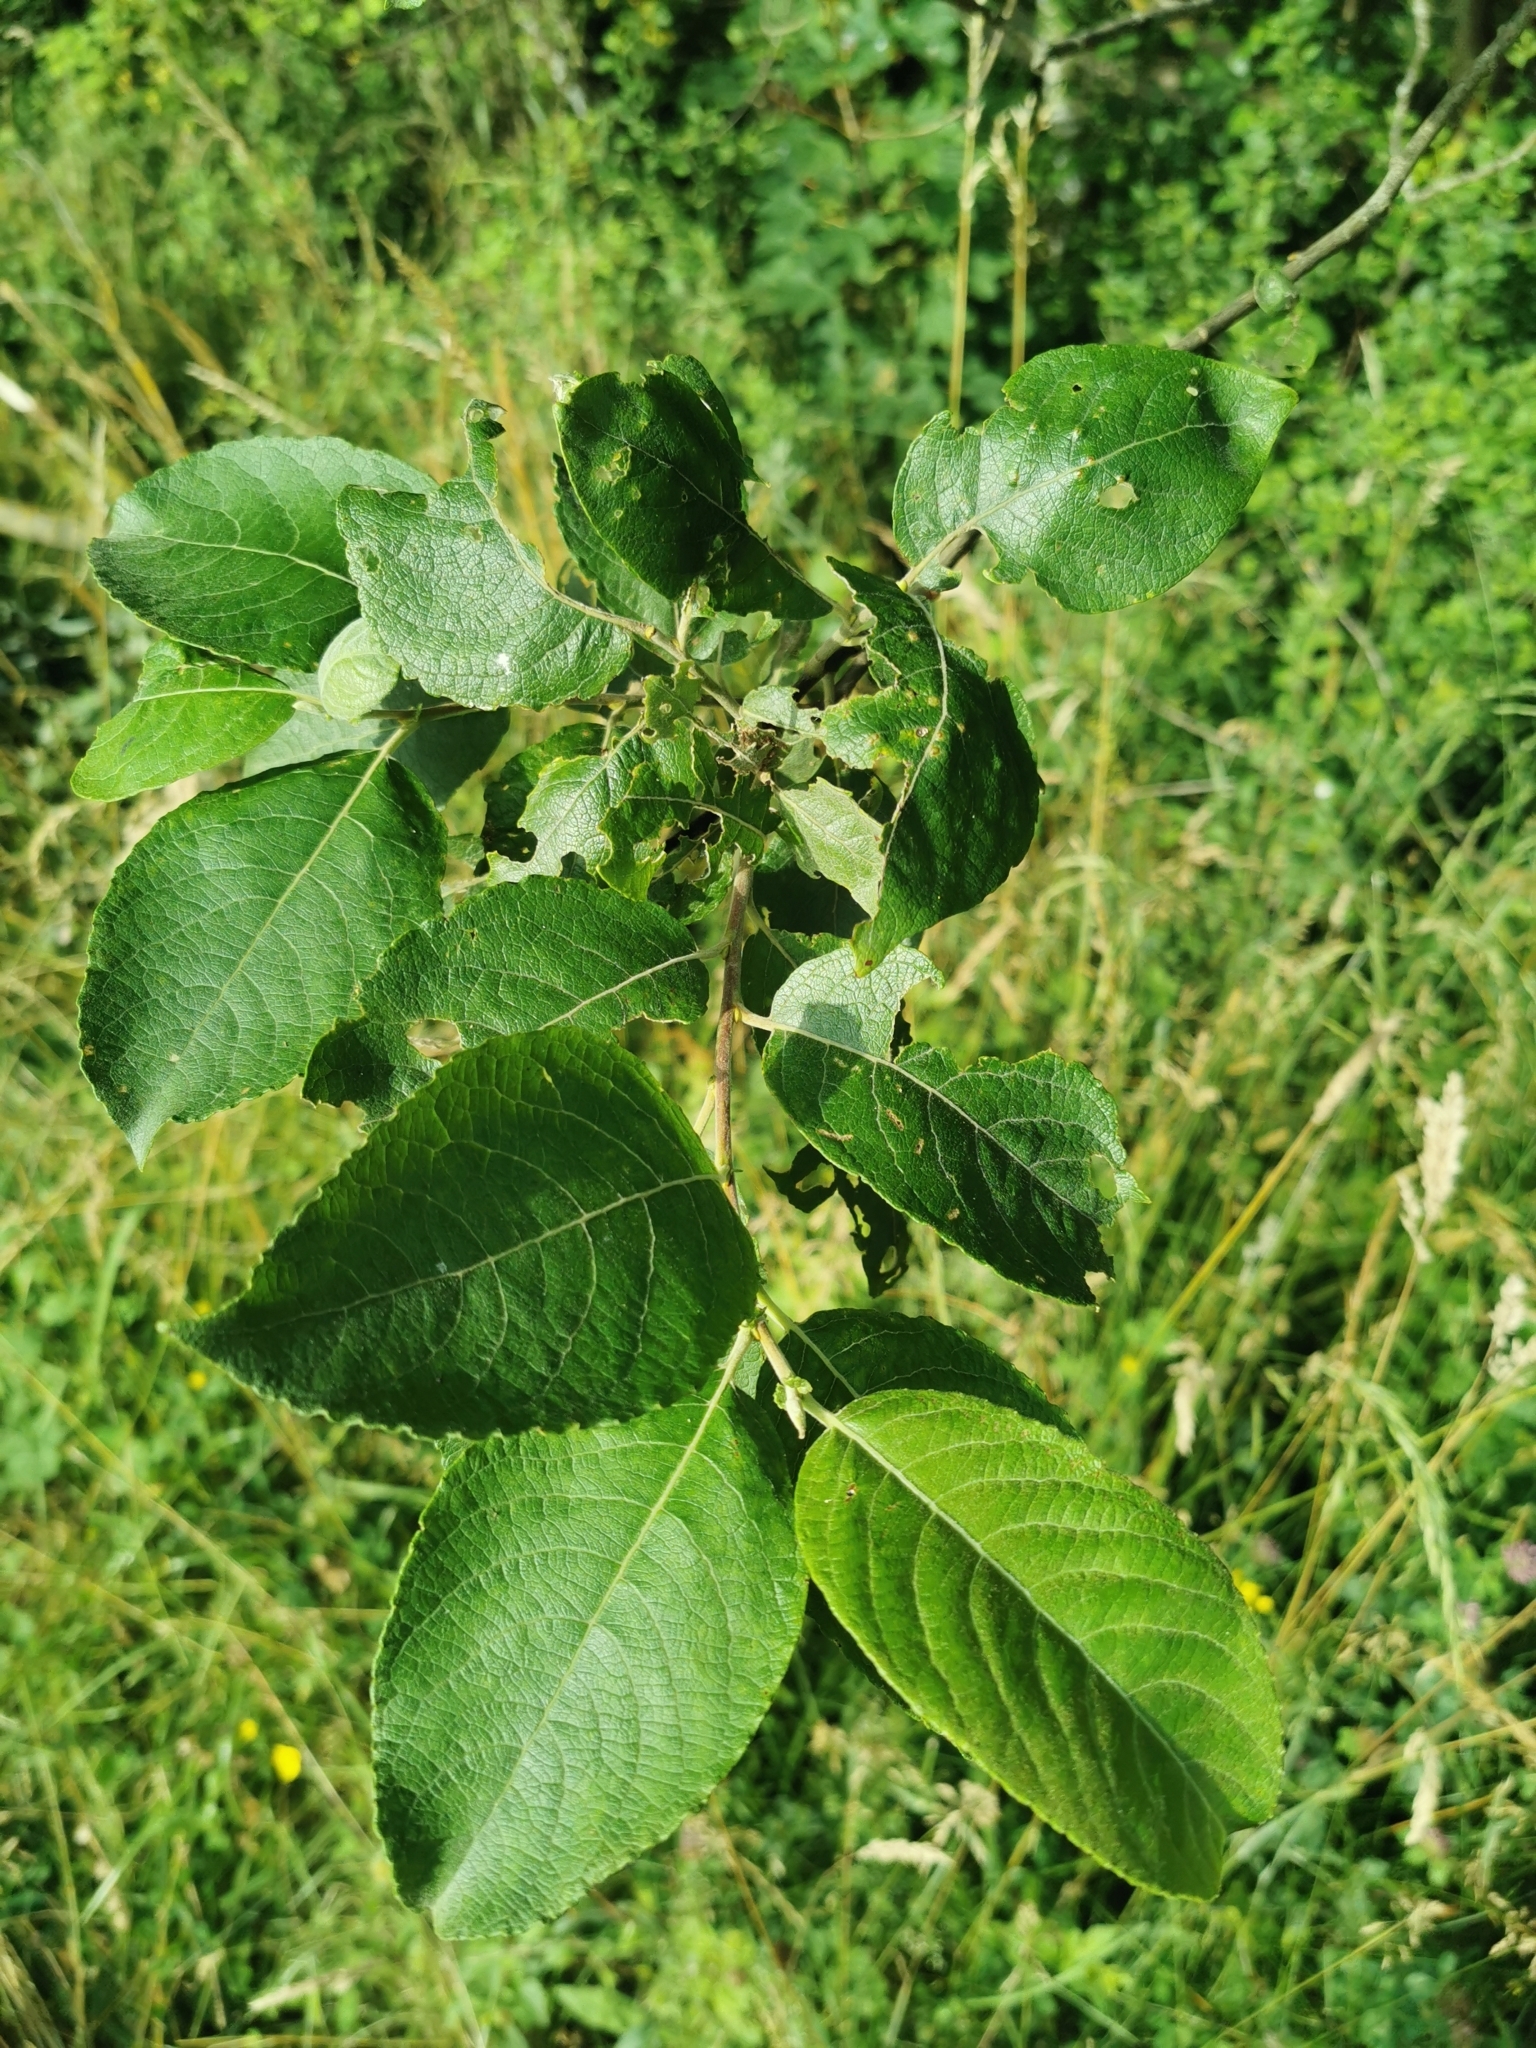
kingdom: Plantae
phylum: Tracheophyta
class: Magnoliopsida
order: Malpighiales
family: Salicaceae
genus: Salix
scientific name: Salix caprea
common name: Goat willow
